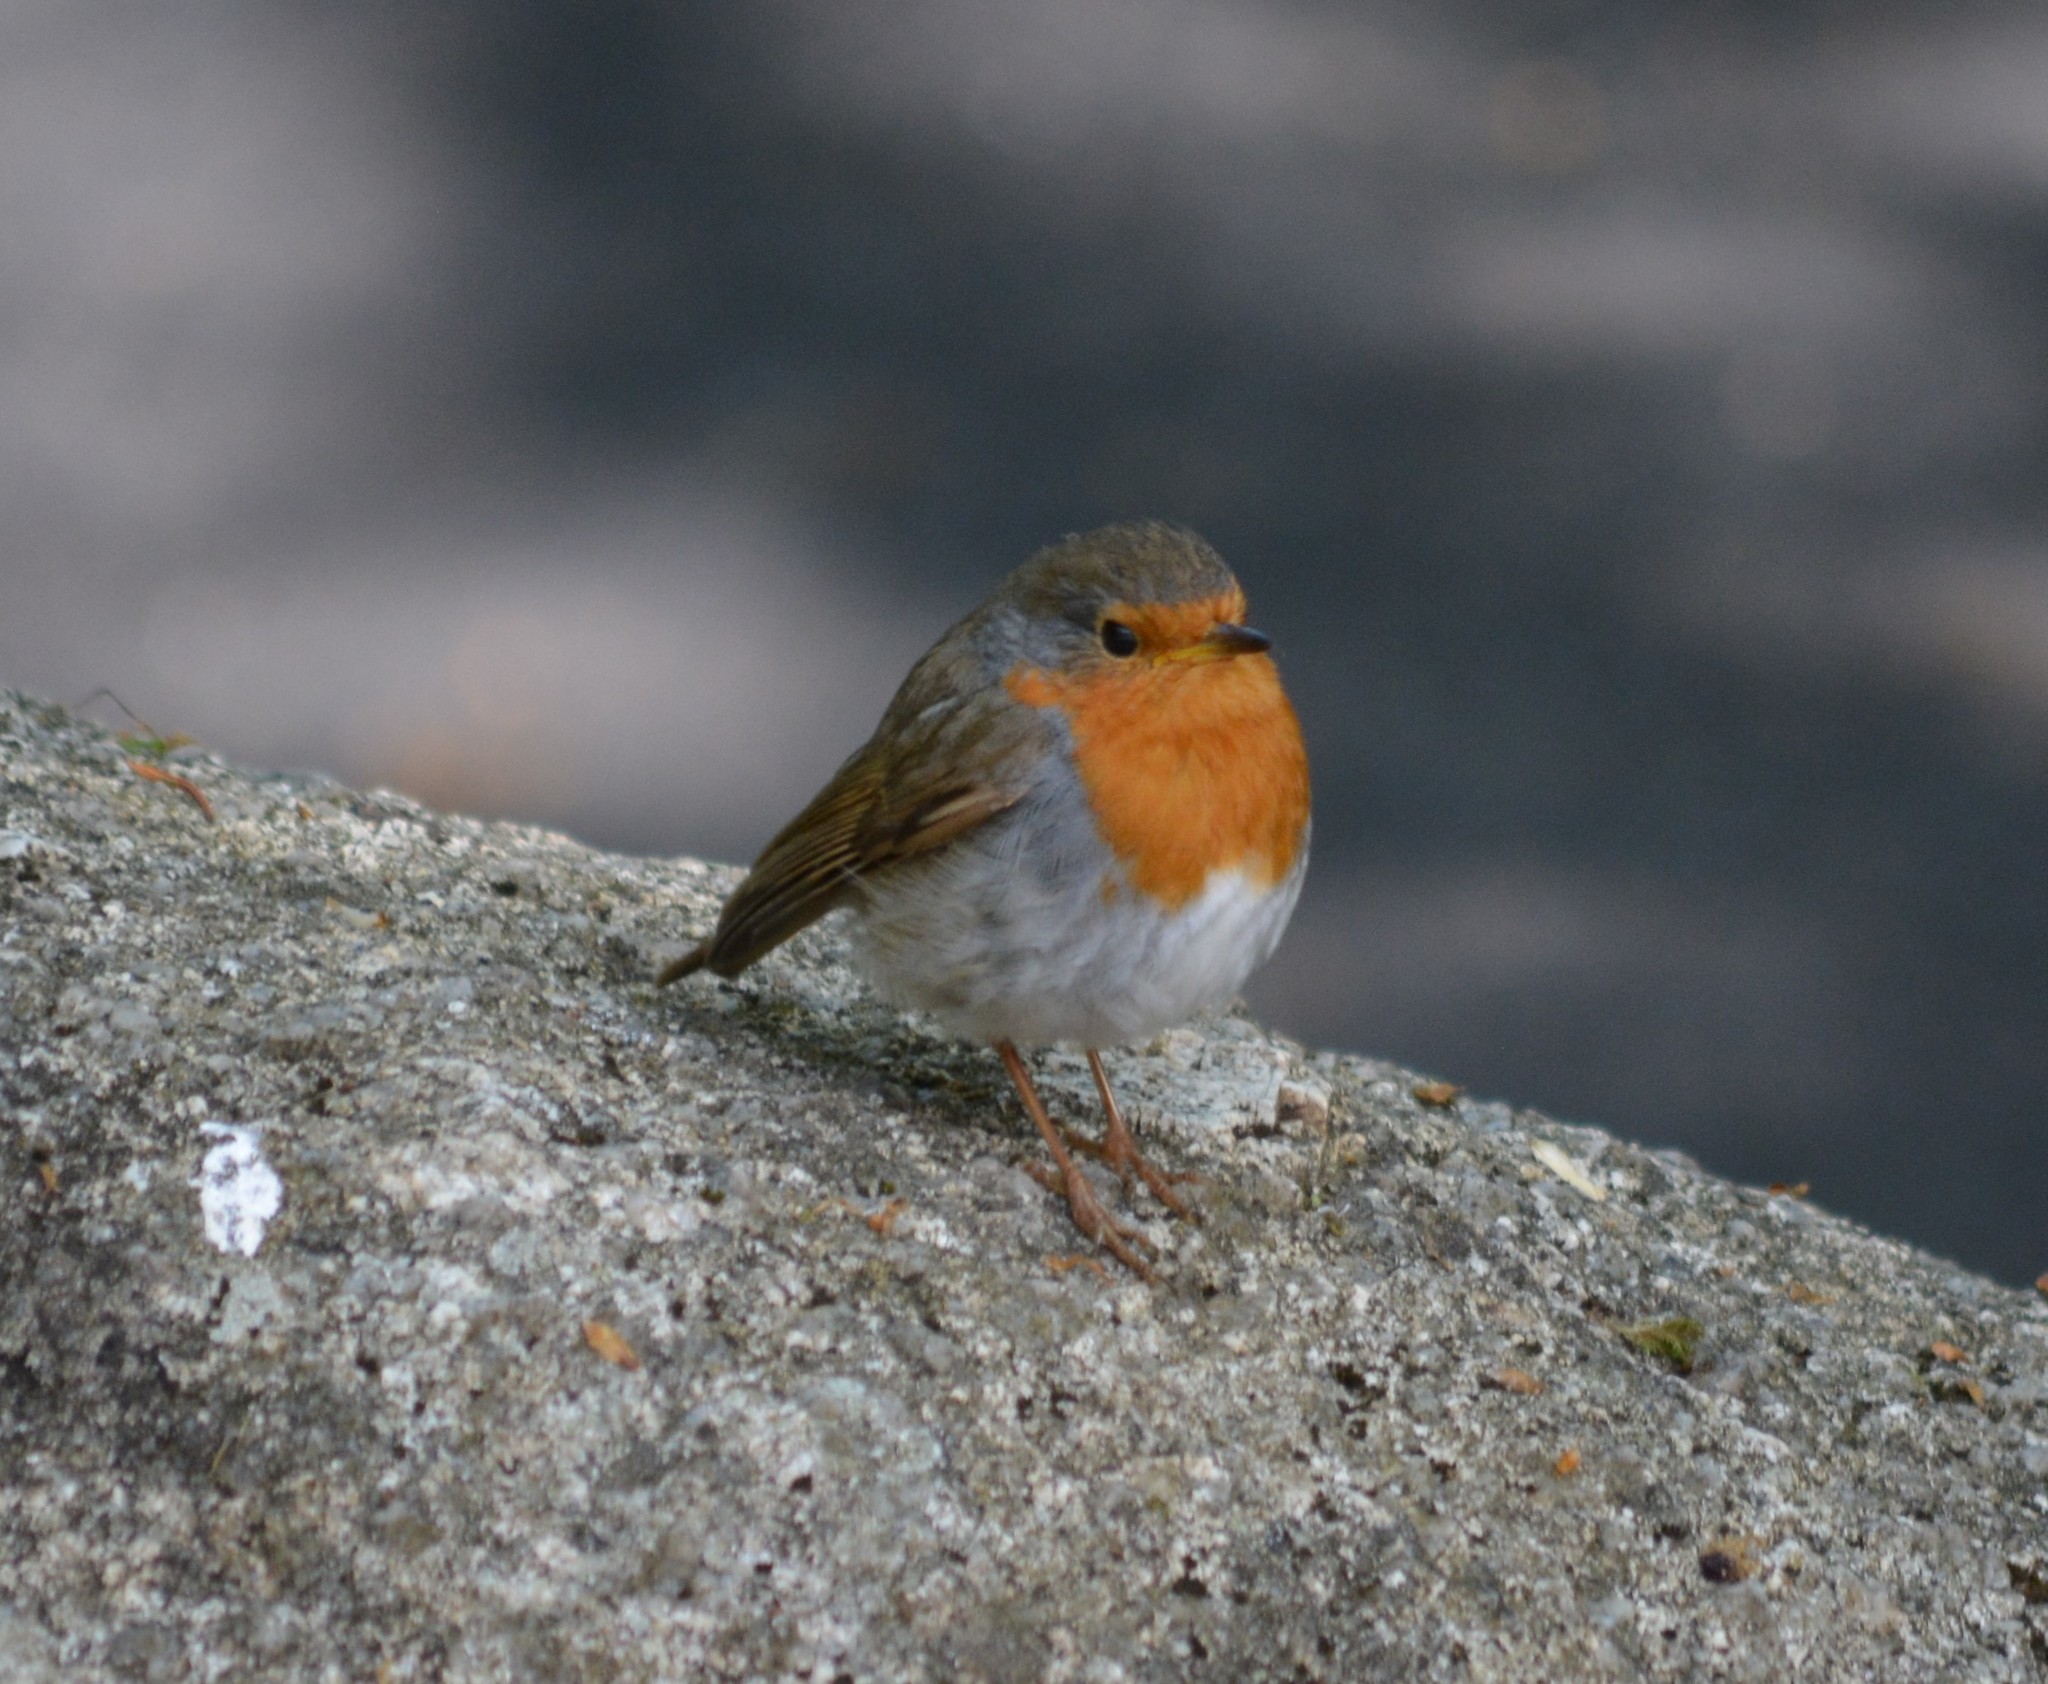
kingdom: Animalia
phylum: Chordata
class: Aves
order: Passeriformes
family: Muscicapidae
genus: Erithacus
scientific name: Erithacus rubecula
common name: European robin
